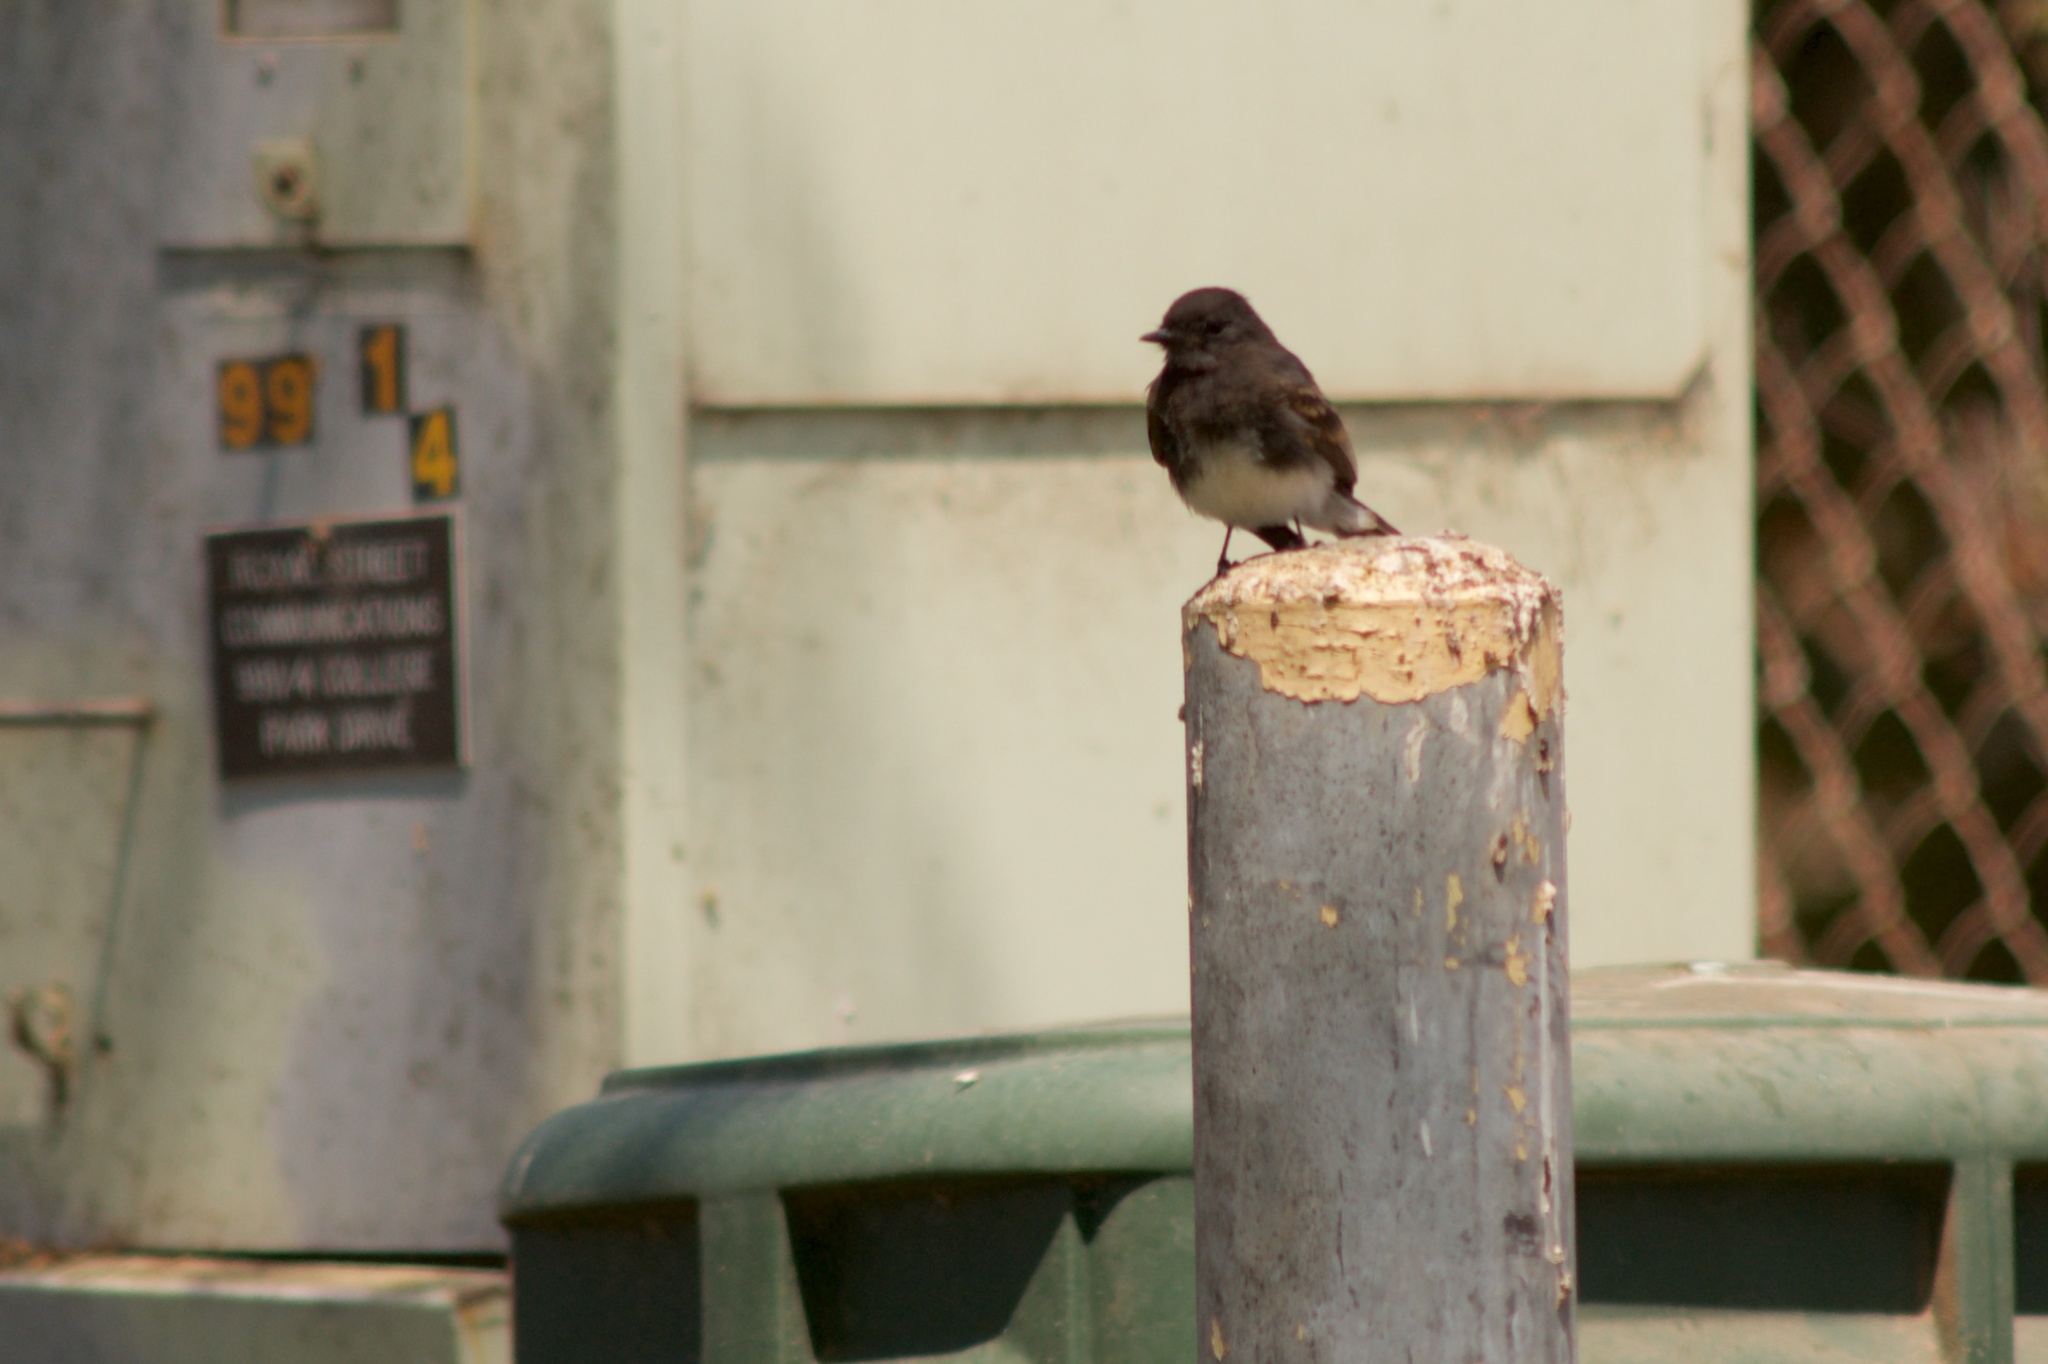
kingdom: Animalia
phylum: Chordata
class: Aves
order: Passeriformes
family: Tyrannidae
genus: Sayornis
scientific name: Sayornis nigricans
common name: Black phoebe
